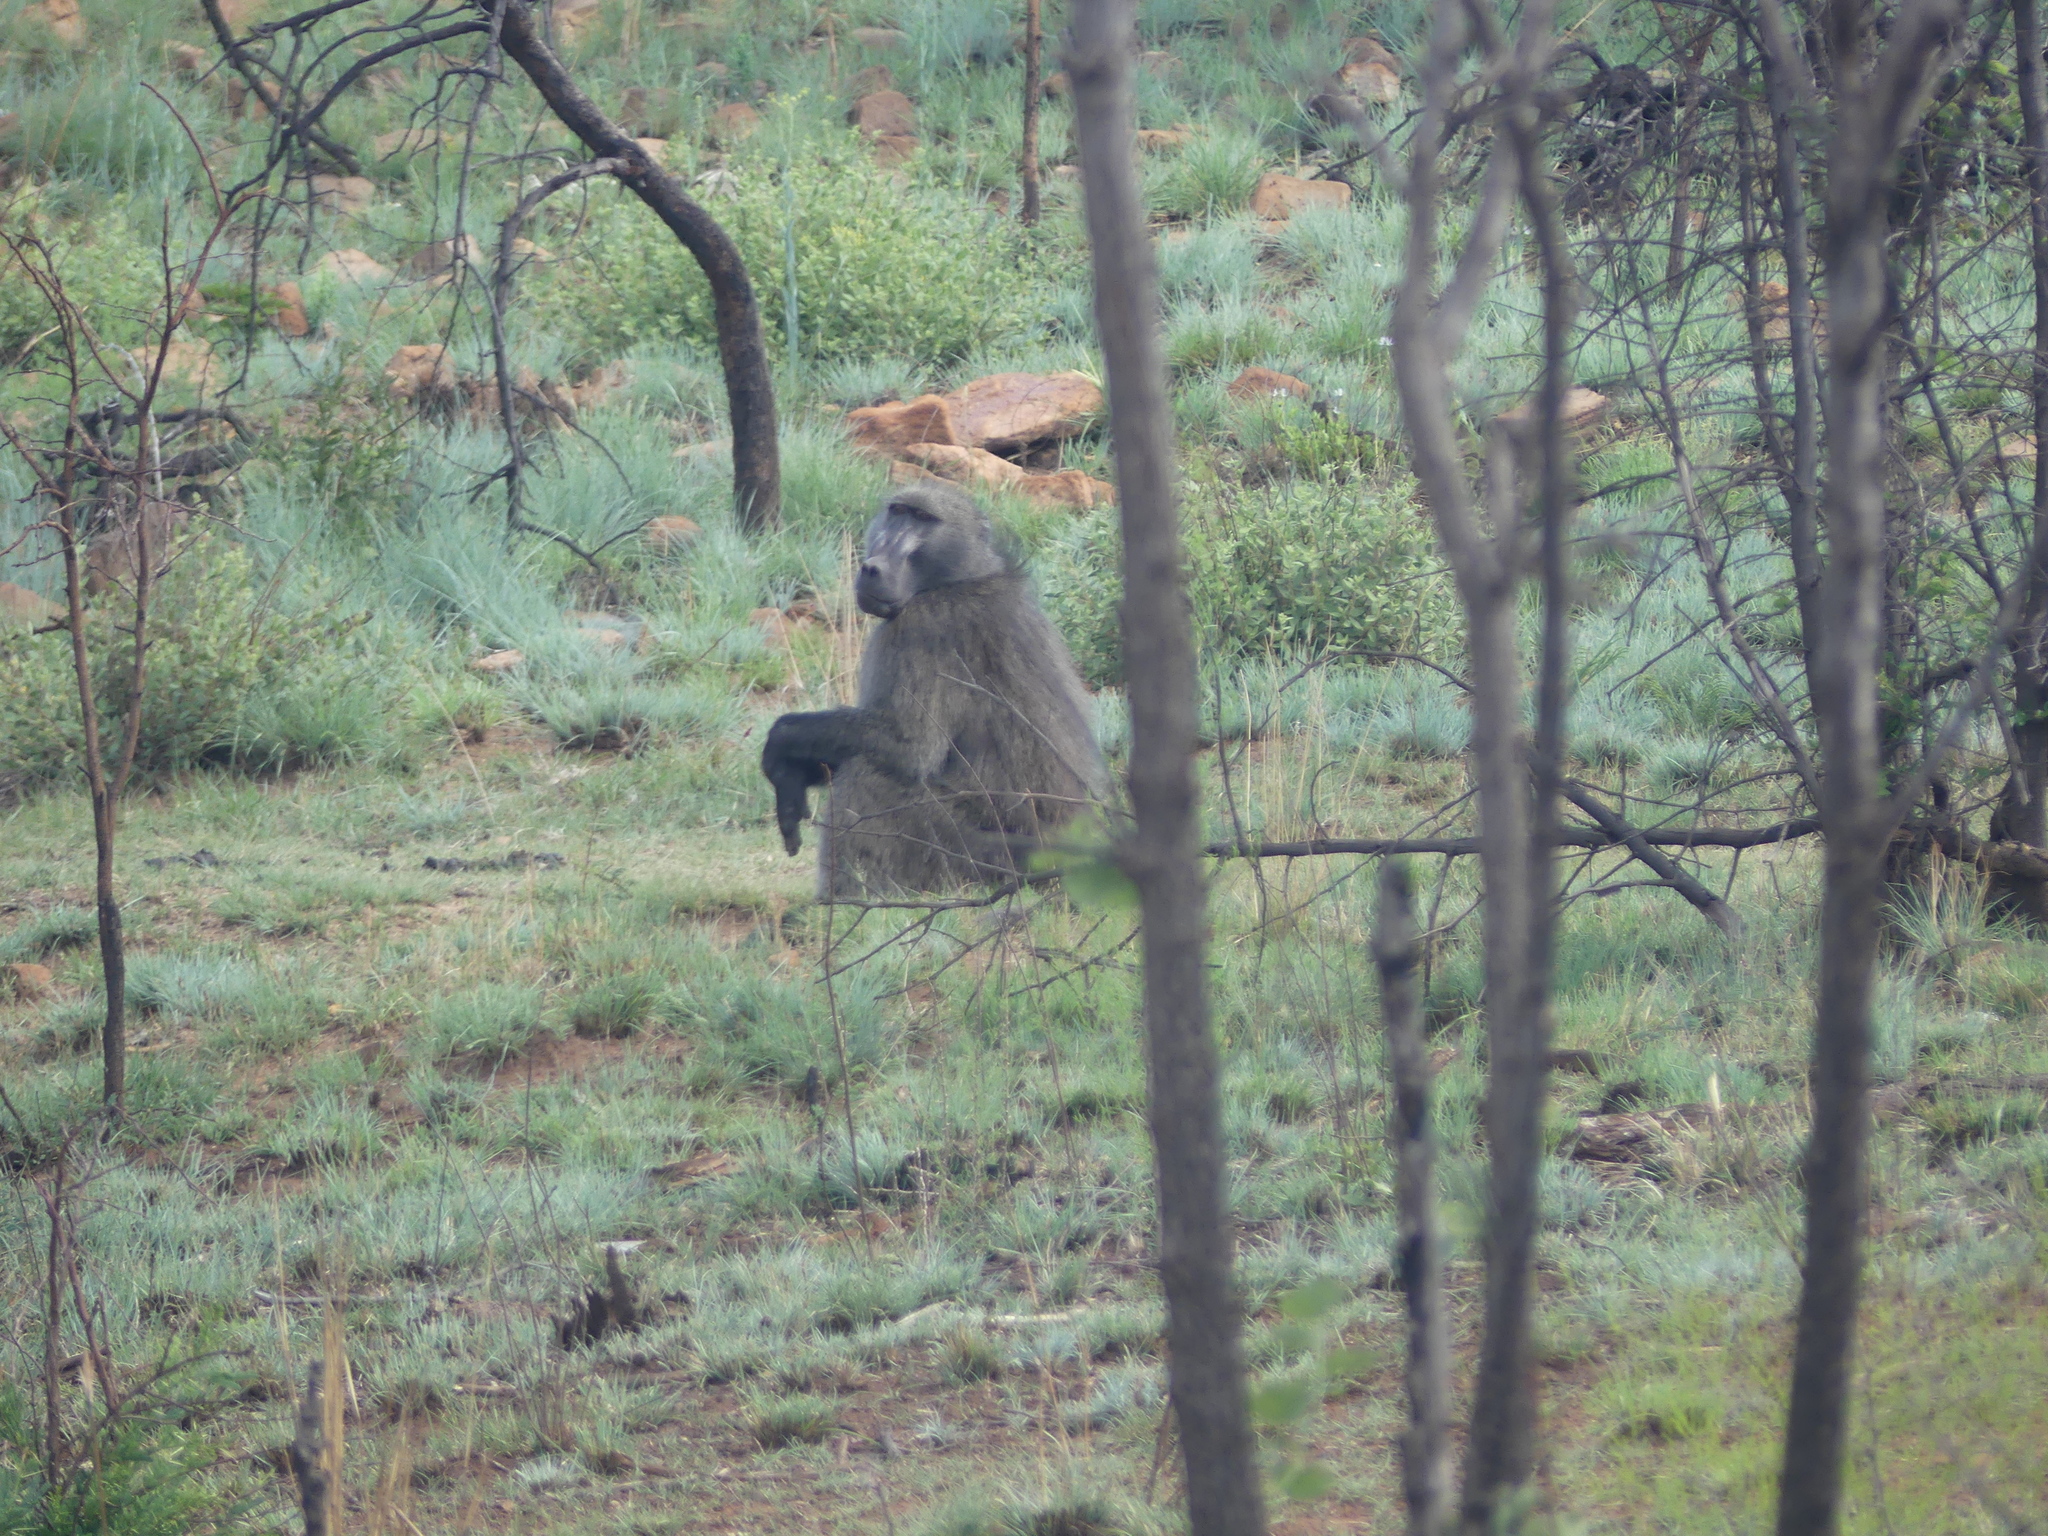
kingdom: Animalia
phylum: Chordata
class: Mammalia
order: Primates
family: Cercopithecidae
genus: Papio
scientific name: Papio ursinus
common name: Chacma baboon
